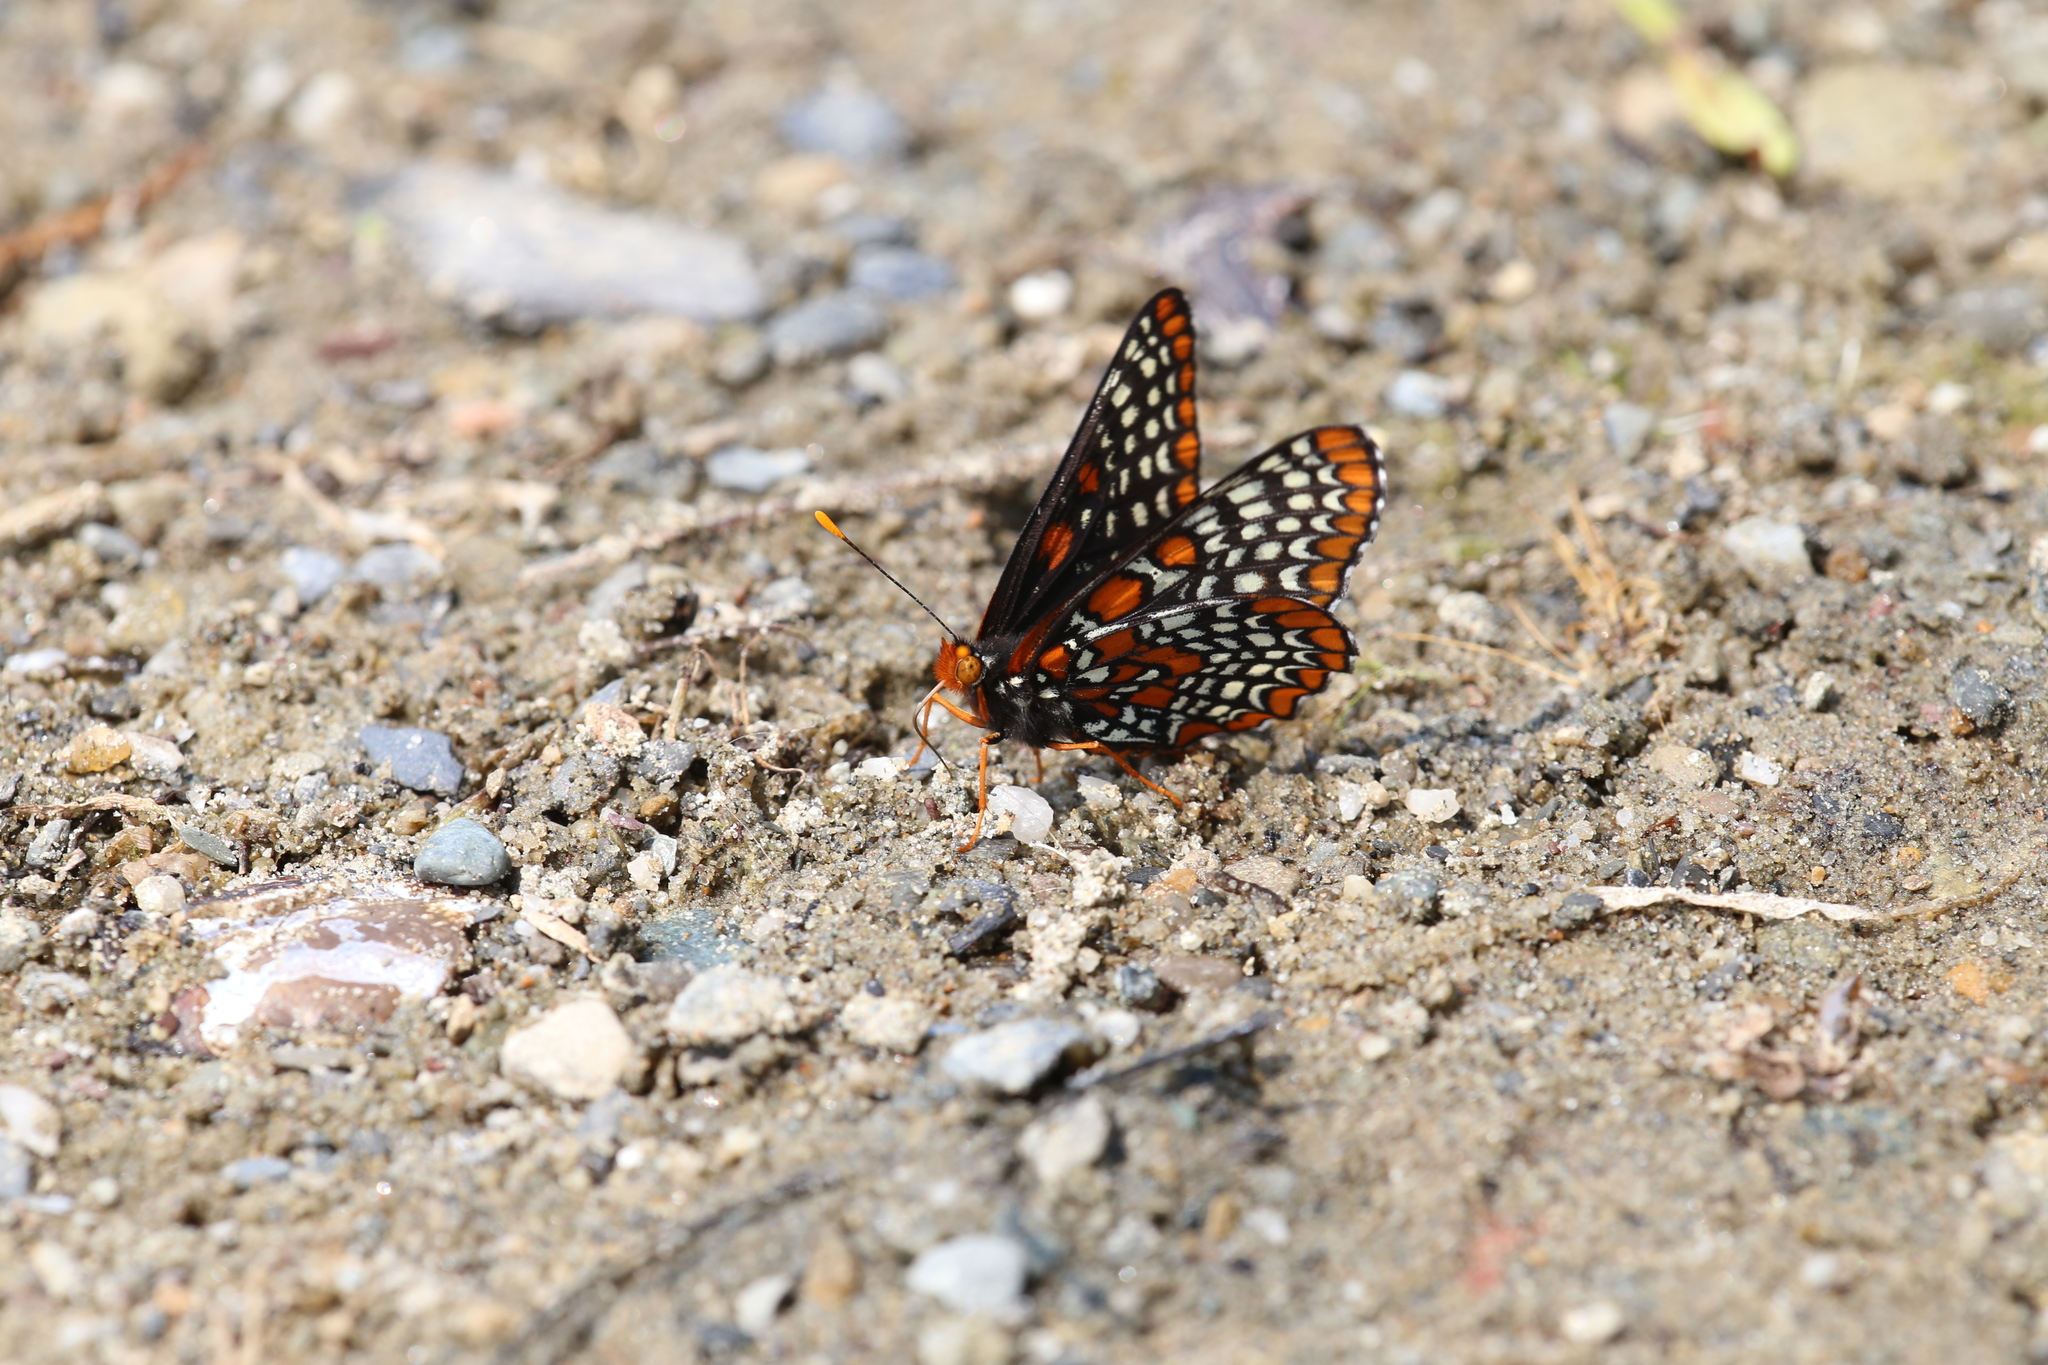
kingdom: Animalia
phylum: Arthropoda
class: Insecta
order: Lepidoptera
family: Nymphalidae
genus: Euphydryas
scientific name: Euphydryas phaeton
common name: Baltimore checkerspot
